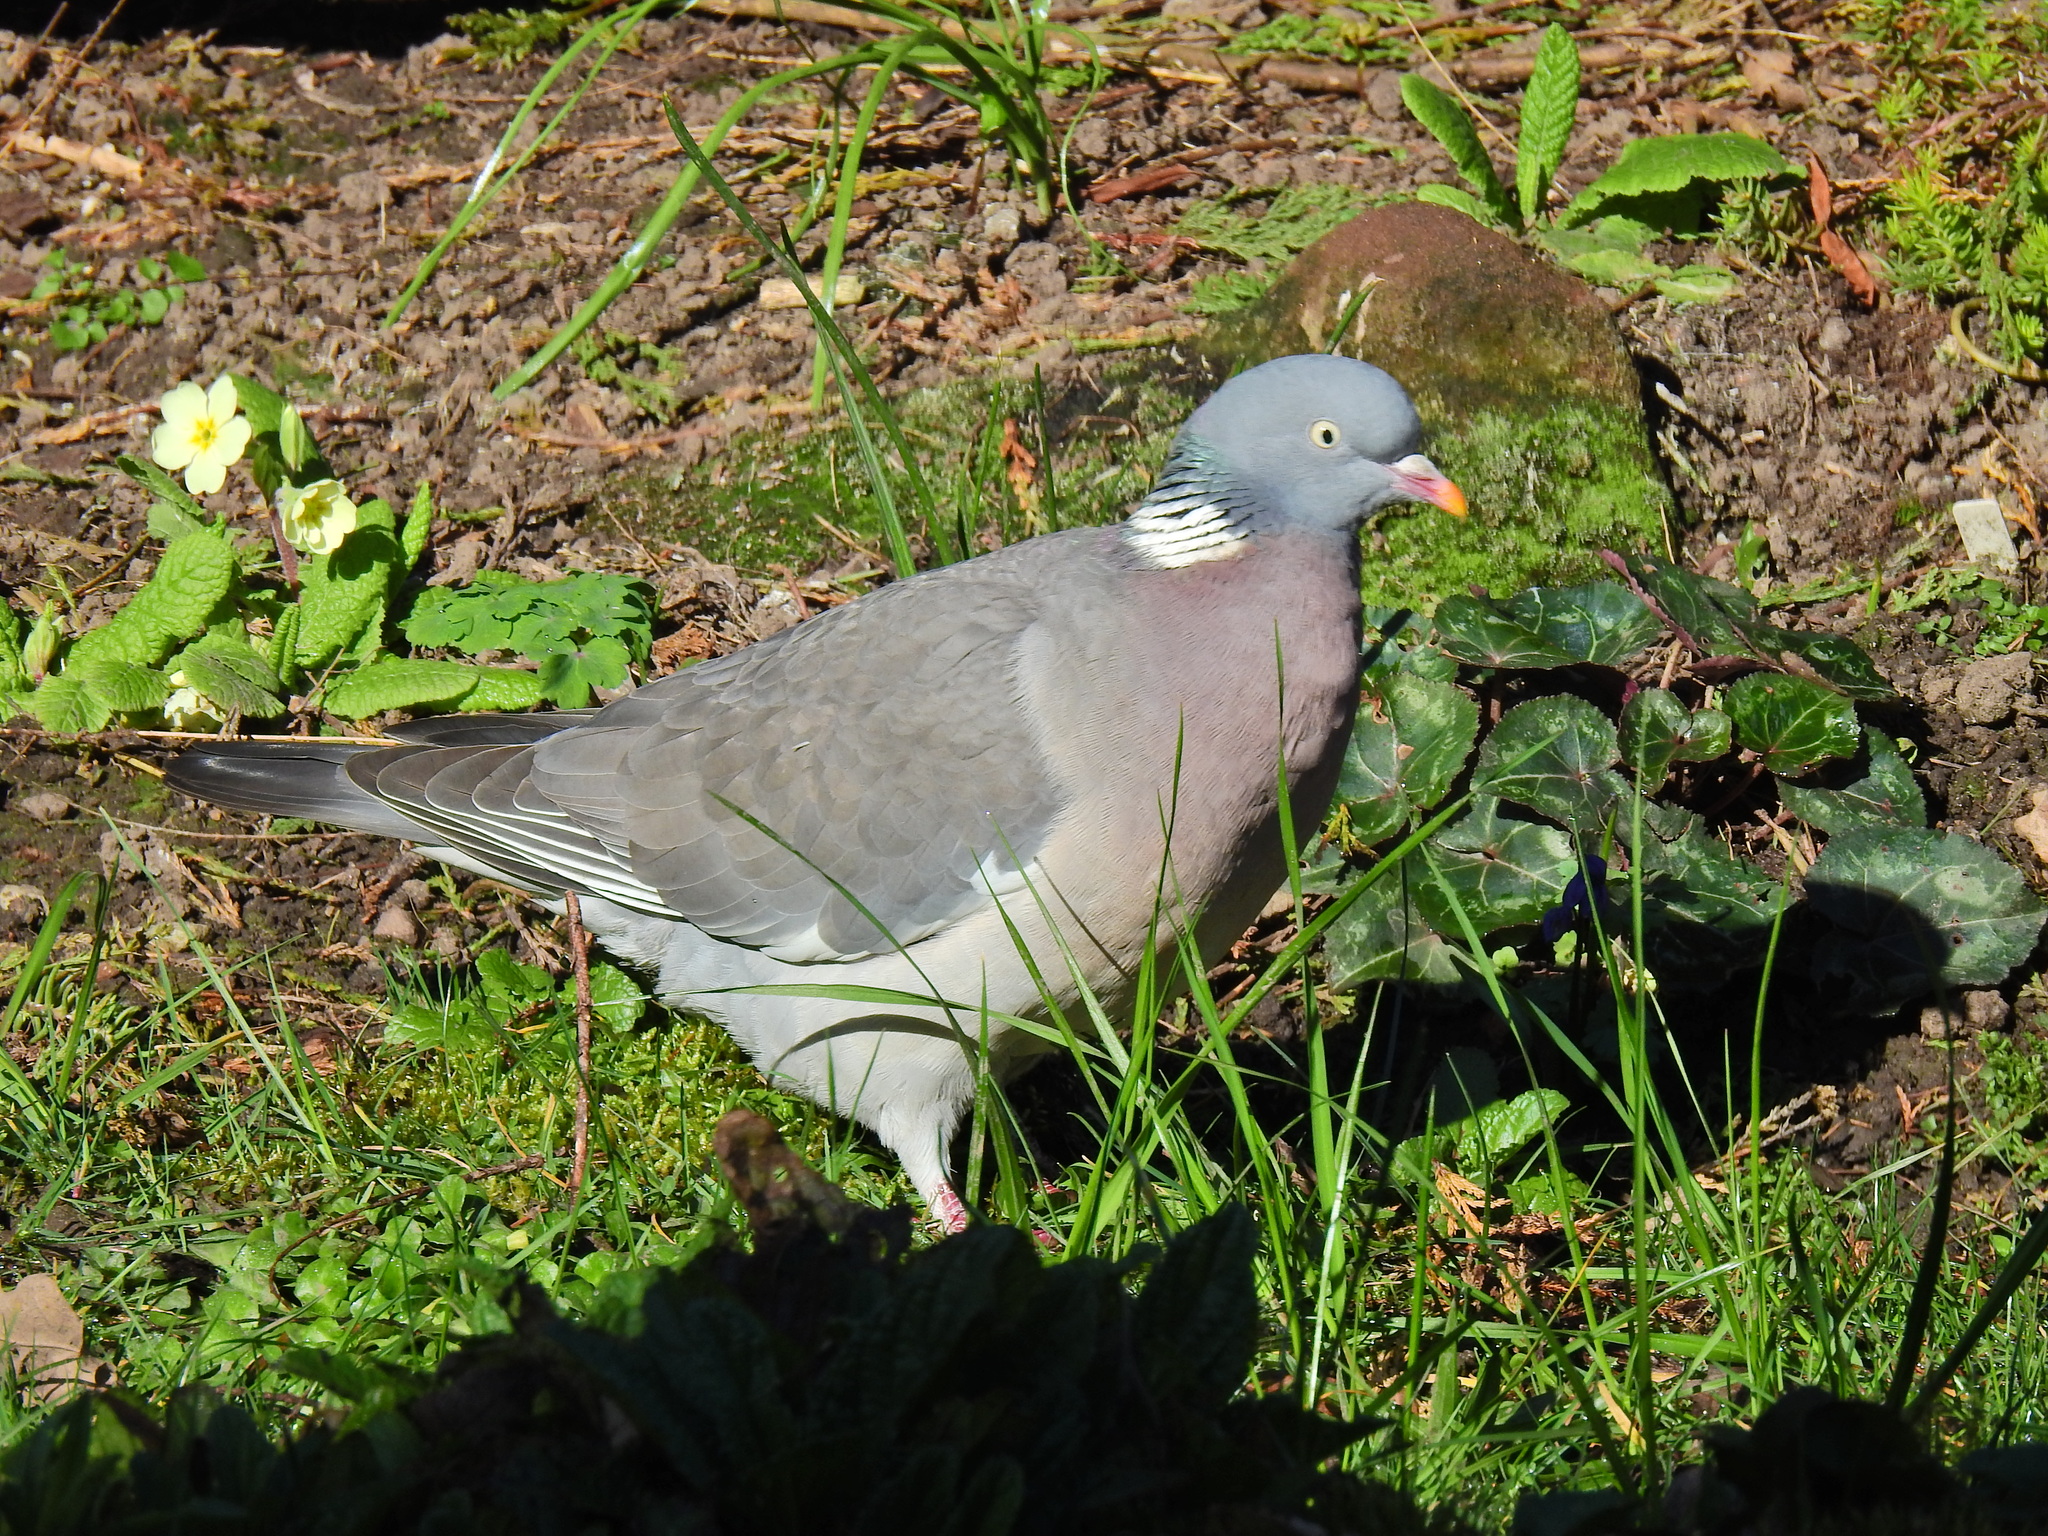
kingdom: Animalia
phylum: Chordata
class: Aves
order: Columbiformes
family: Columbidae
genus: Columba
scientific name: Columba palumbus
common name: Common wood pigeon
